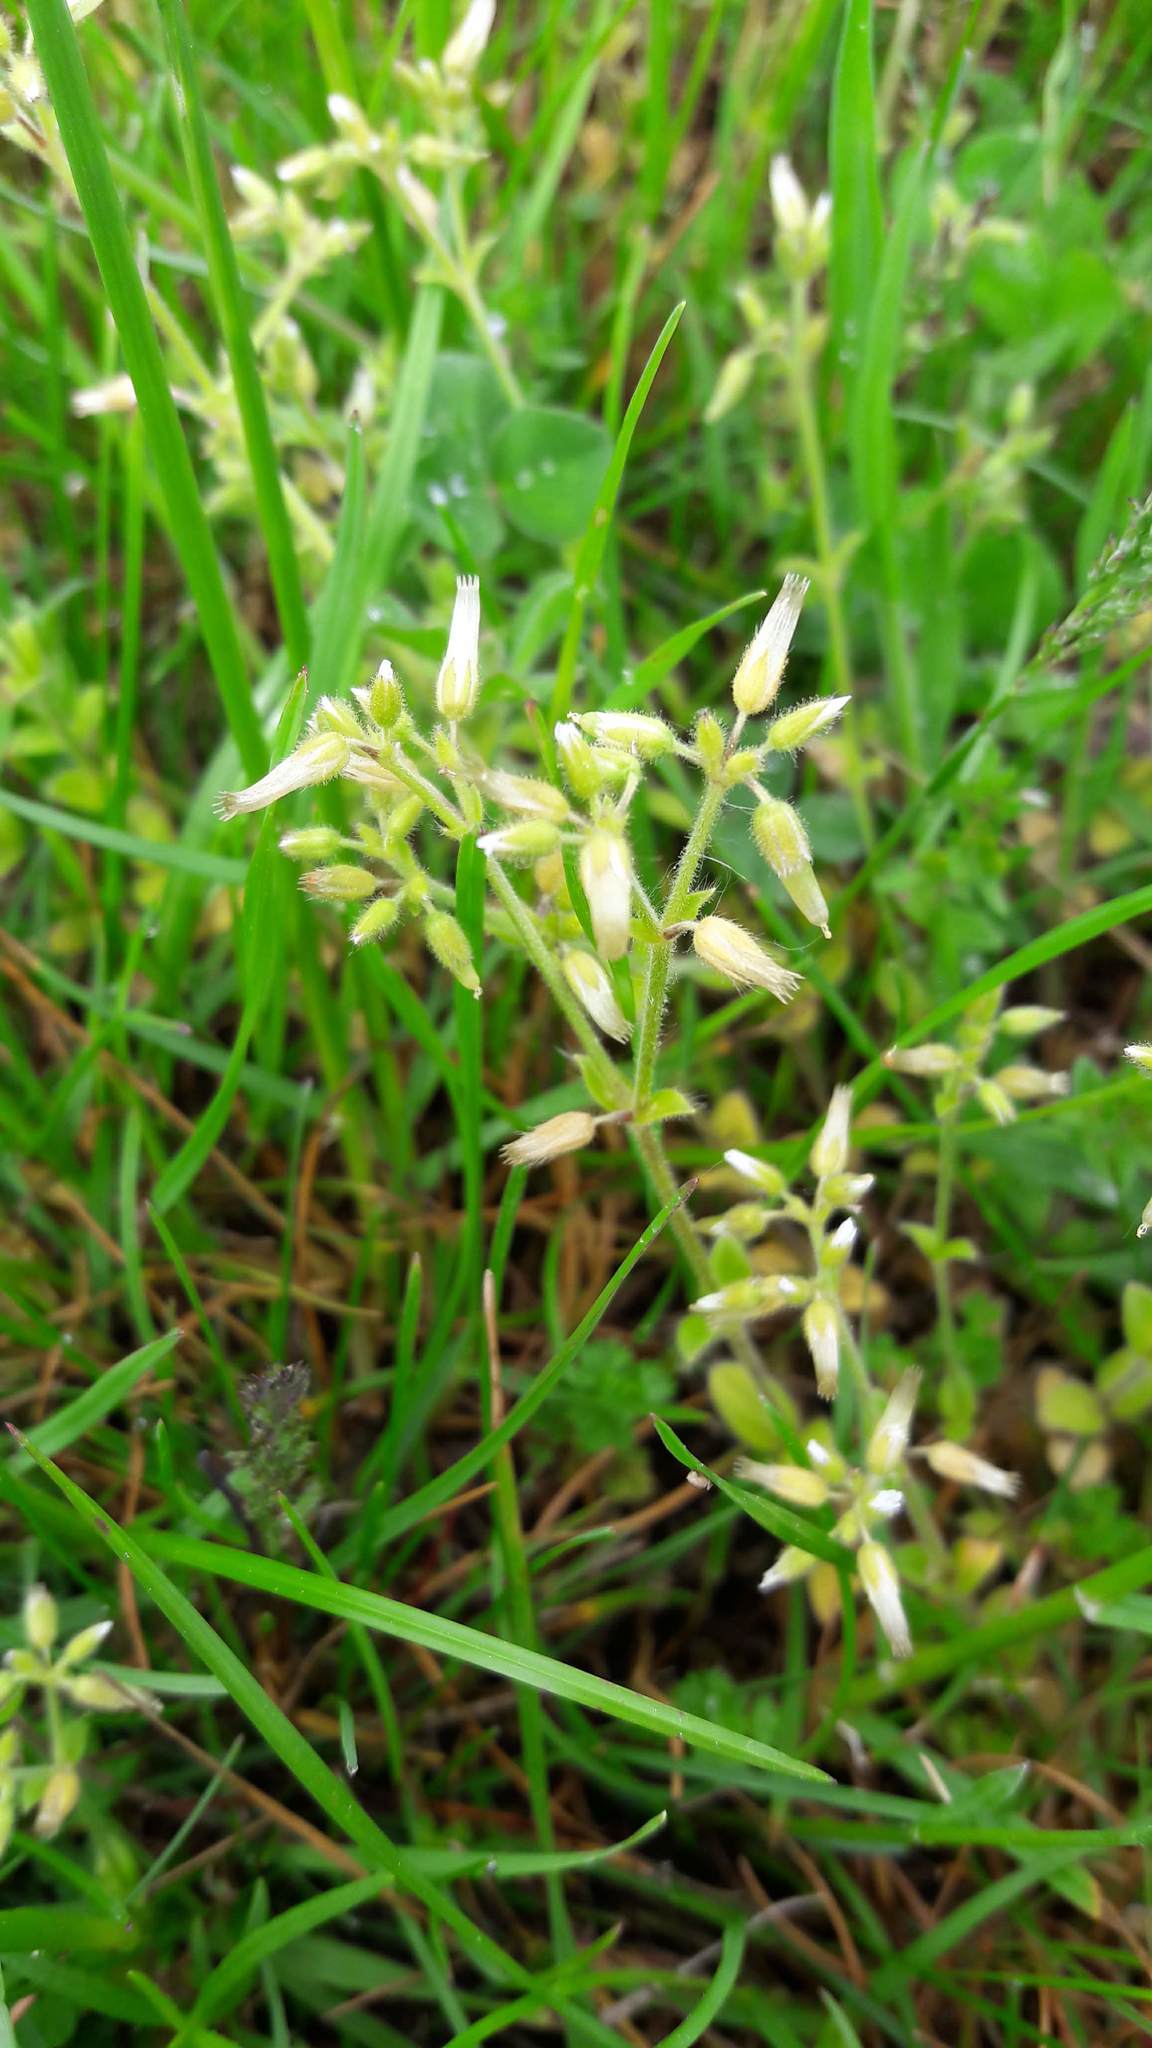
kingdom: Plantae
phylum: Tracheophyta
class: Magnoliopsida
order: Caryophyllales
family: Caryophyllaceae
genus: Cerastium
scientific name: Cerastium glomeratum
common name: Sticky chickweed
